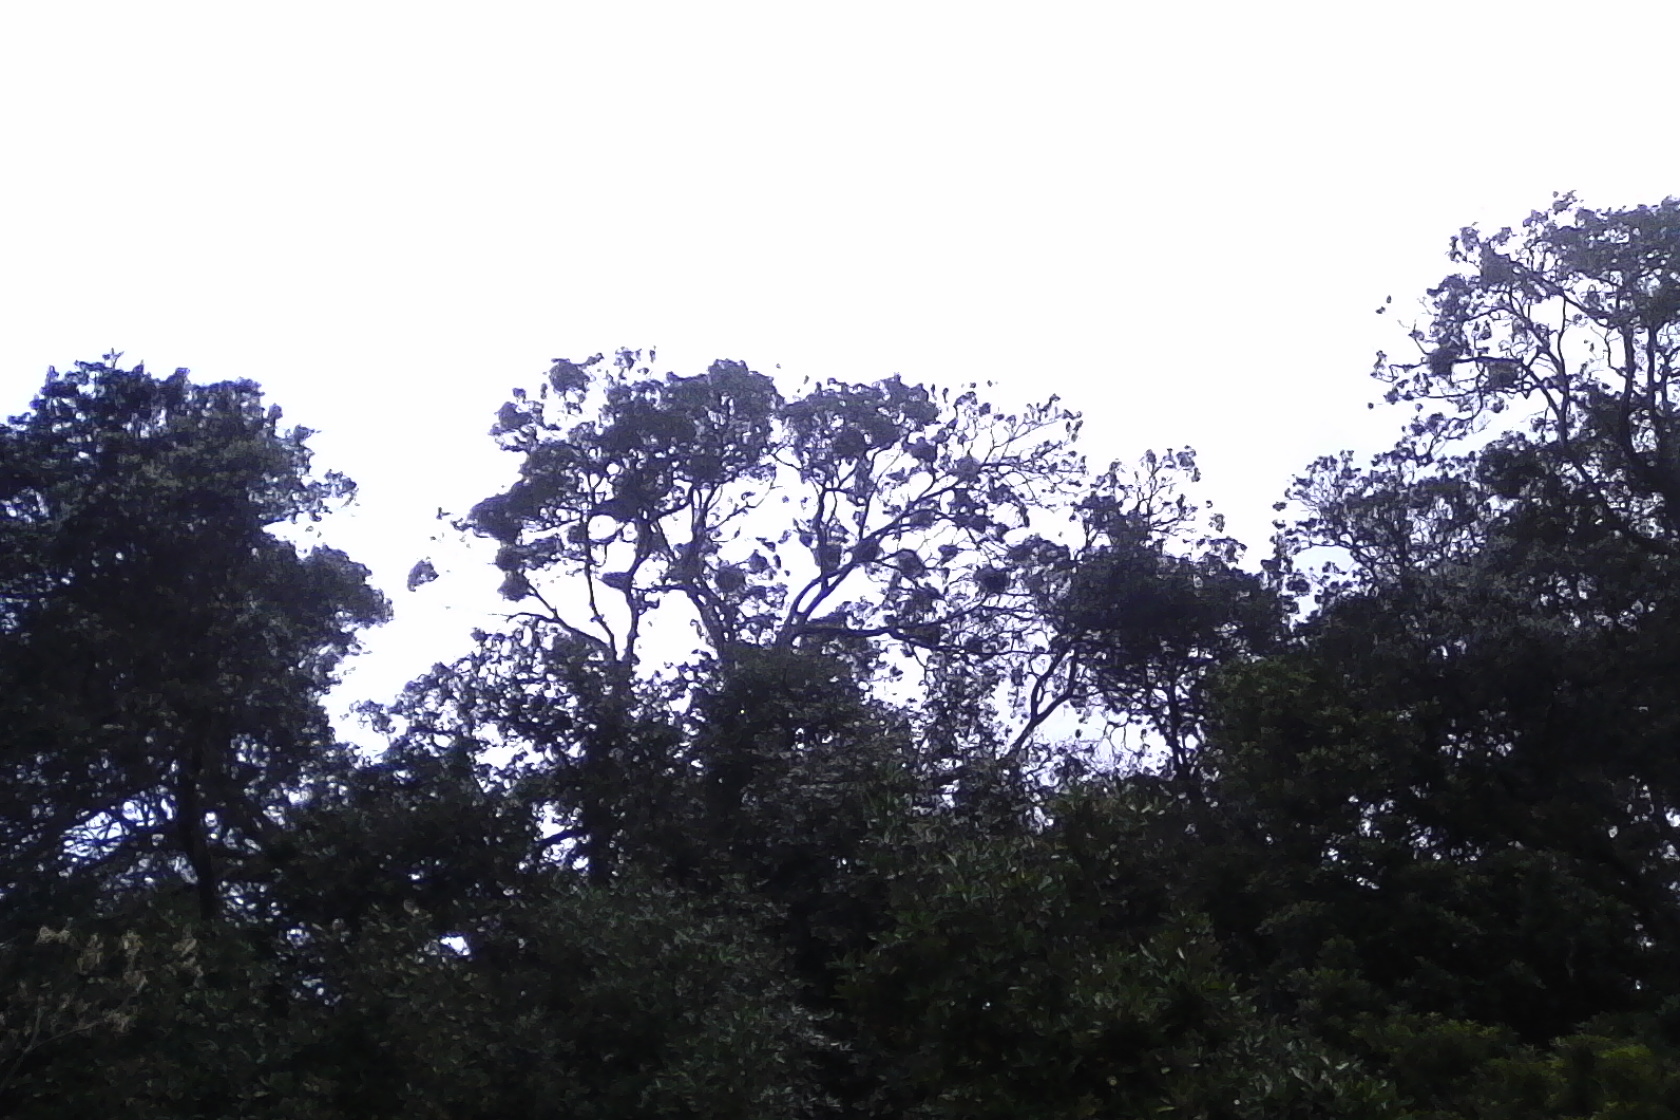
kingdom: Animalia
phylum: Chordata
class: Aves
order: Suliformes
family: Phalacrocoracidae
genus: Microcarbo
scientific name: Microcarbo melanoleucos
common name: Little pied cormorant
